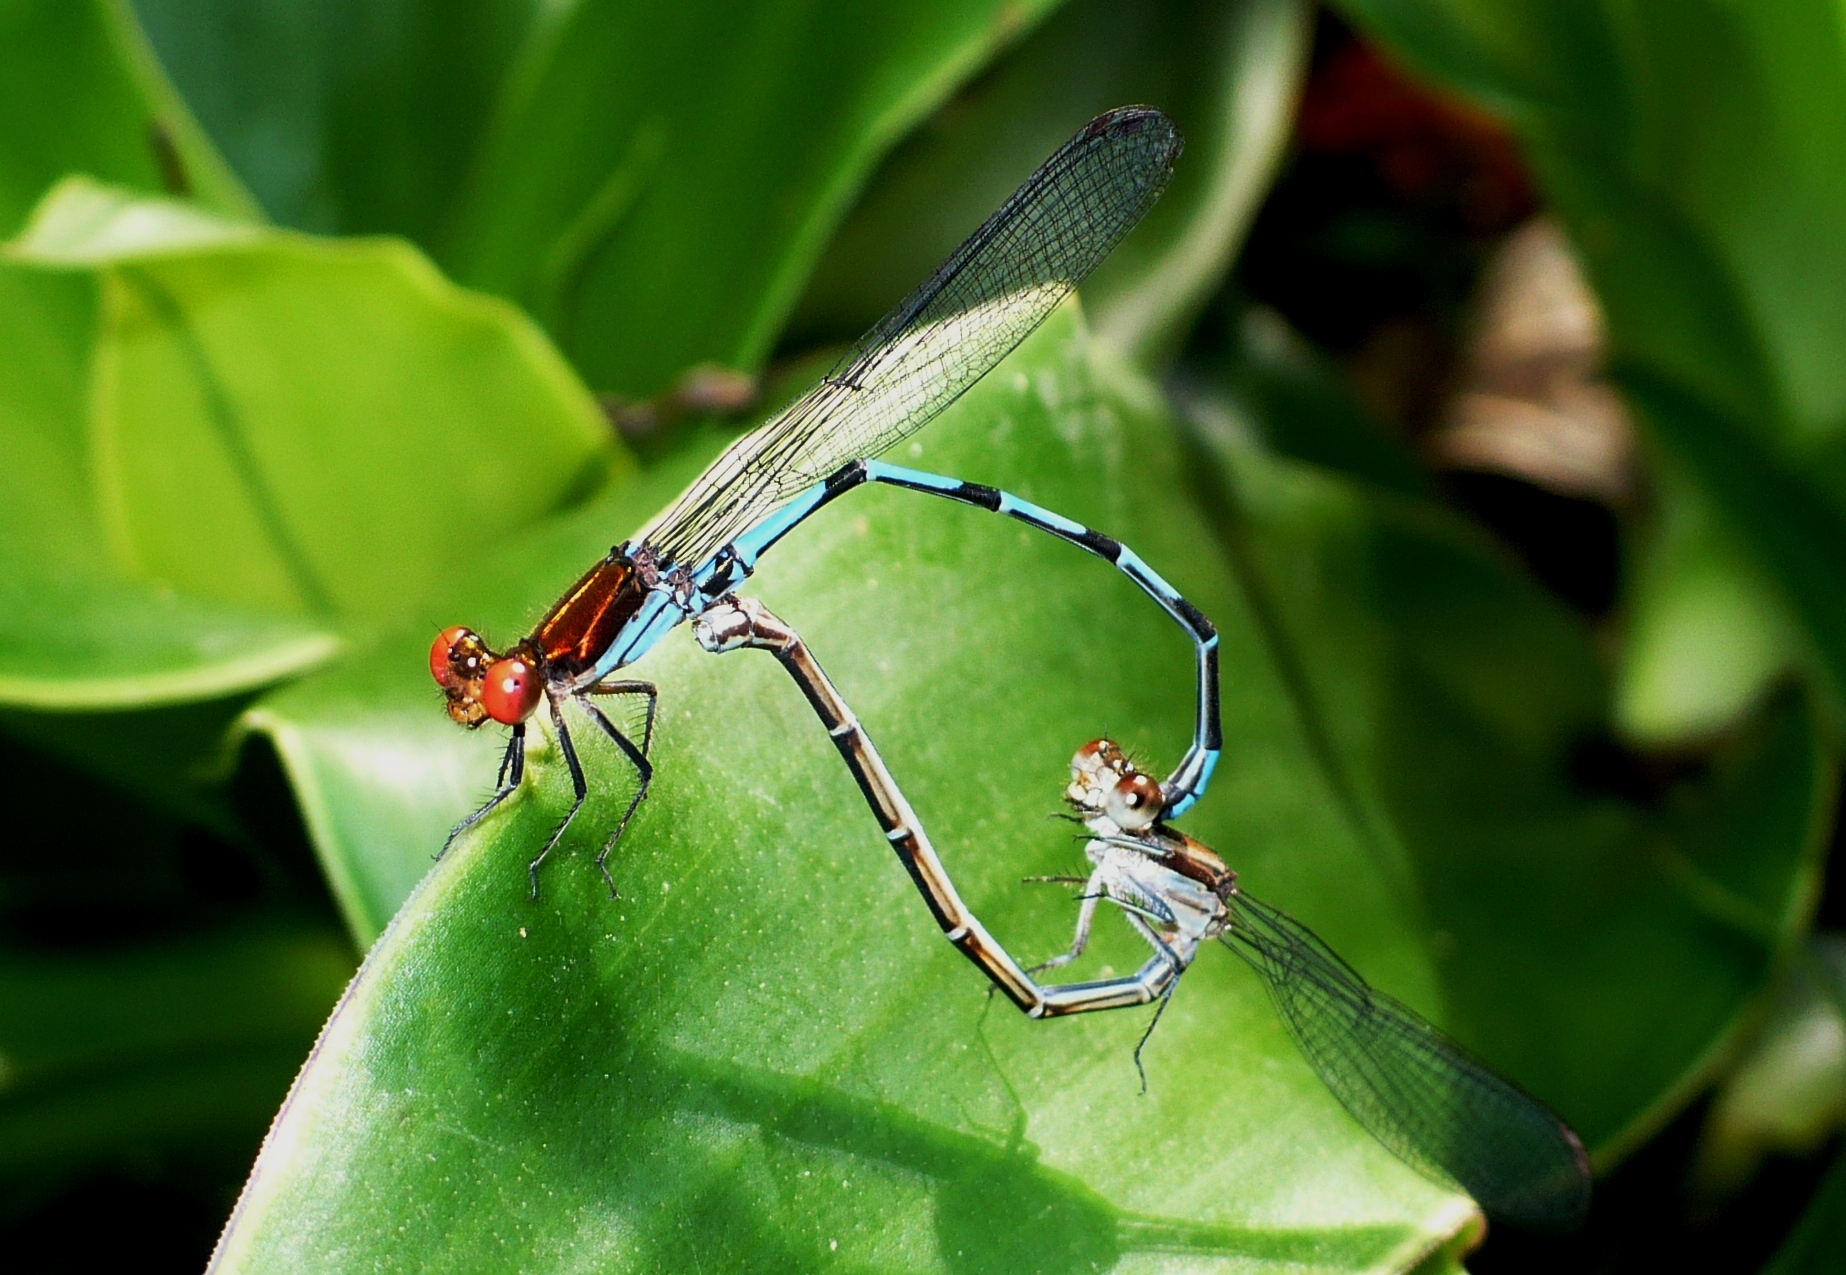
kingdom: Animalia
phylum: Arthropoda
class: Insecta
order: Odonata
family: Coenagrionidae
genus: Argia
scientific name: Argia oenea
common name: Fiery-eyed dancer
